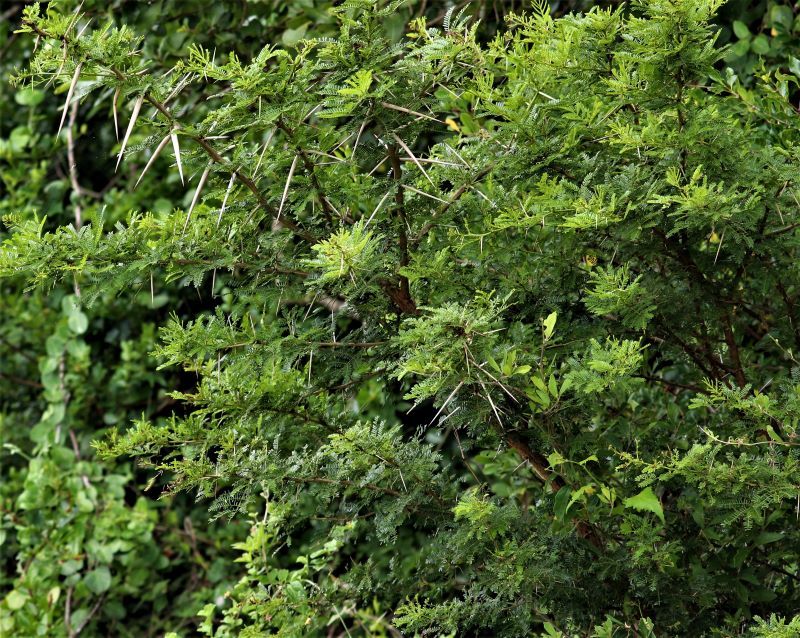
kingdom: Plantae
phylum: Tracheophyta
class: Magnoliopsida
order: Fabales
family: Fabaceae
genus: Vachellia
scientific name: Vachellia karroo
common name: Sweet thorn
